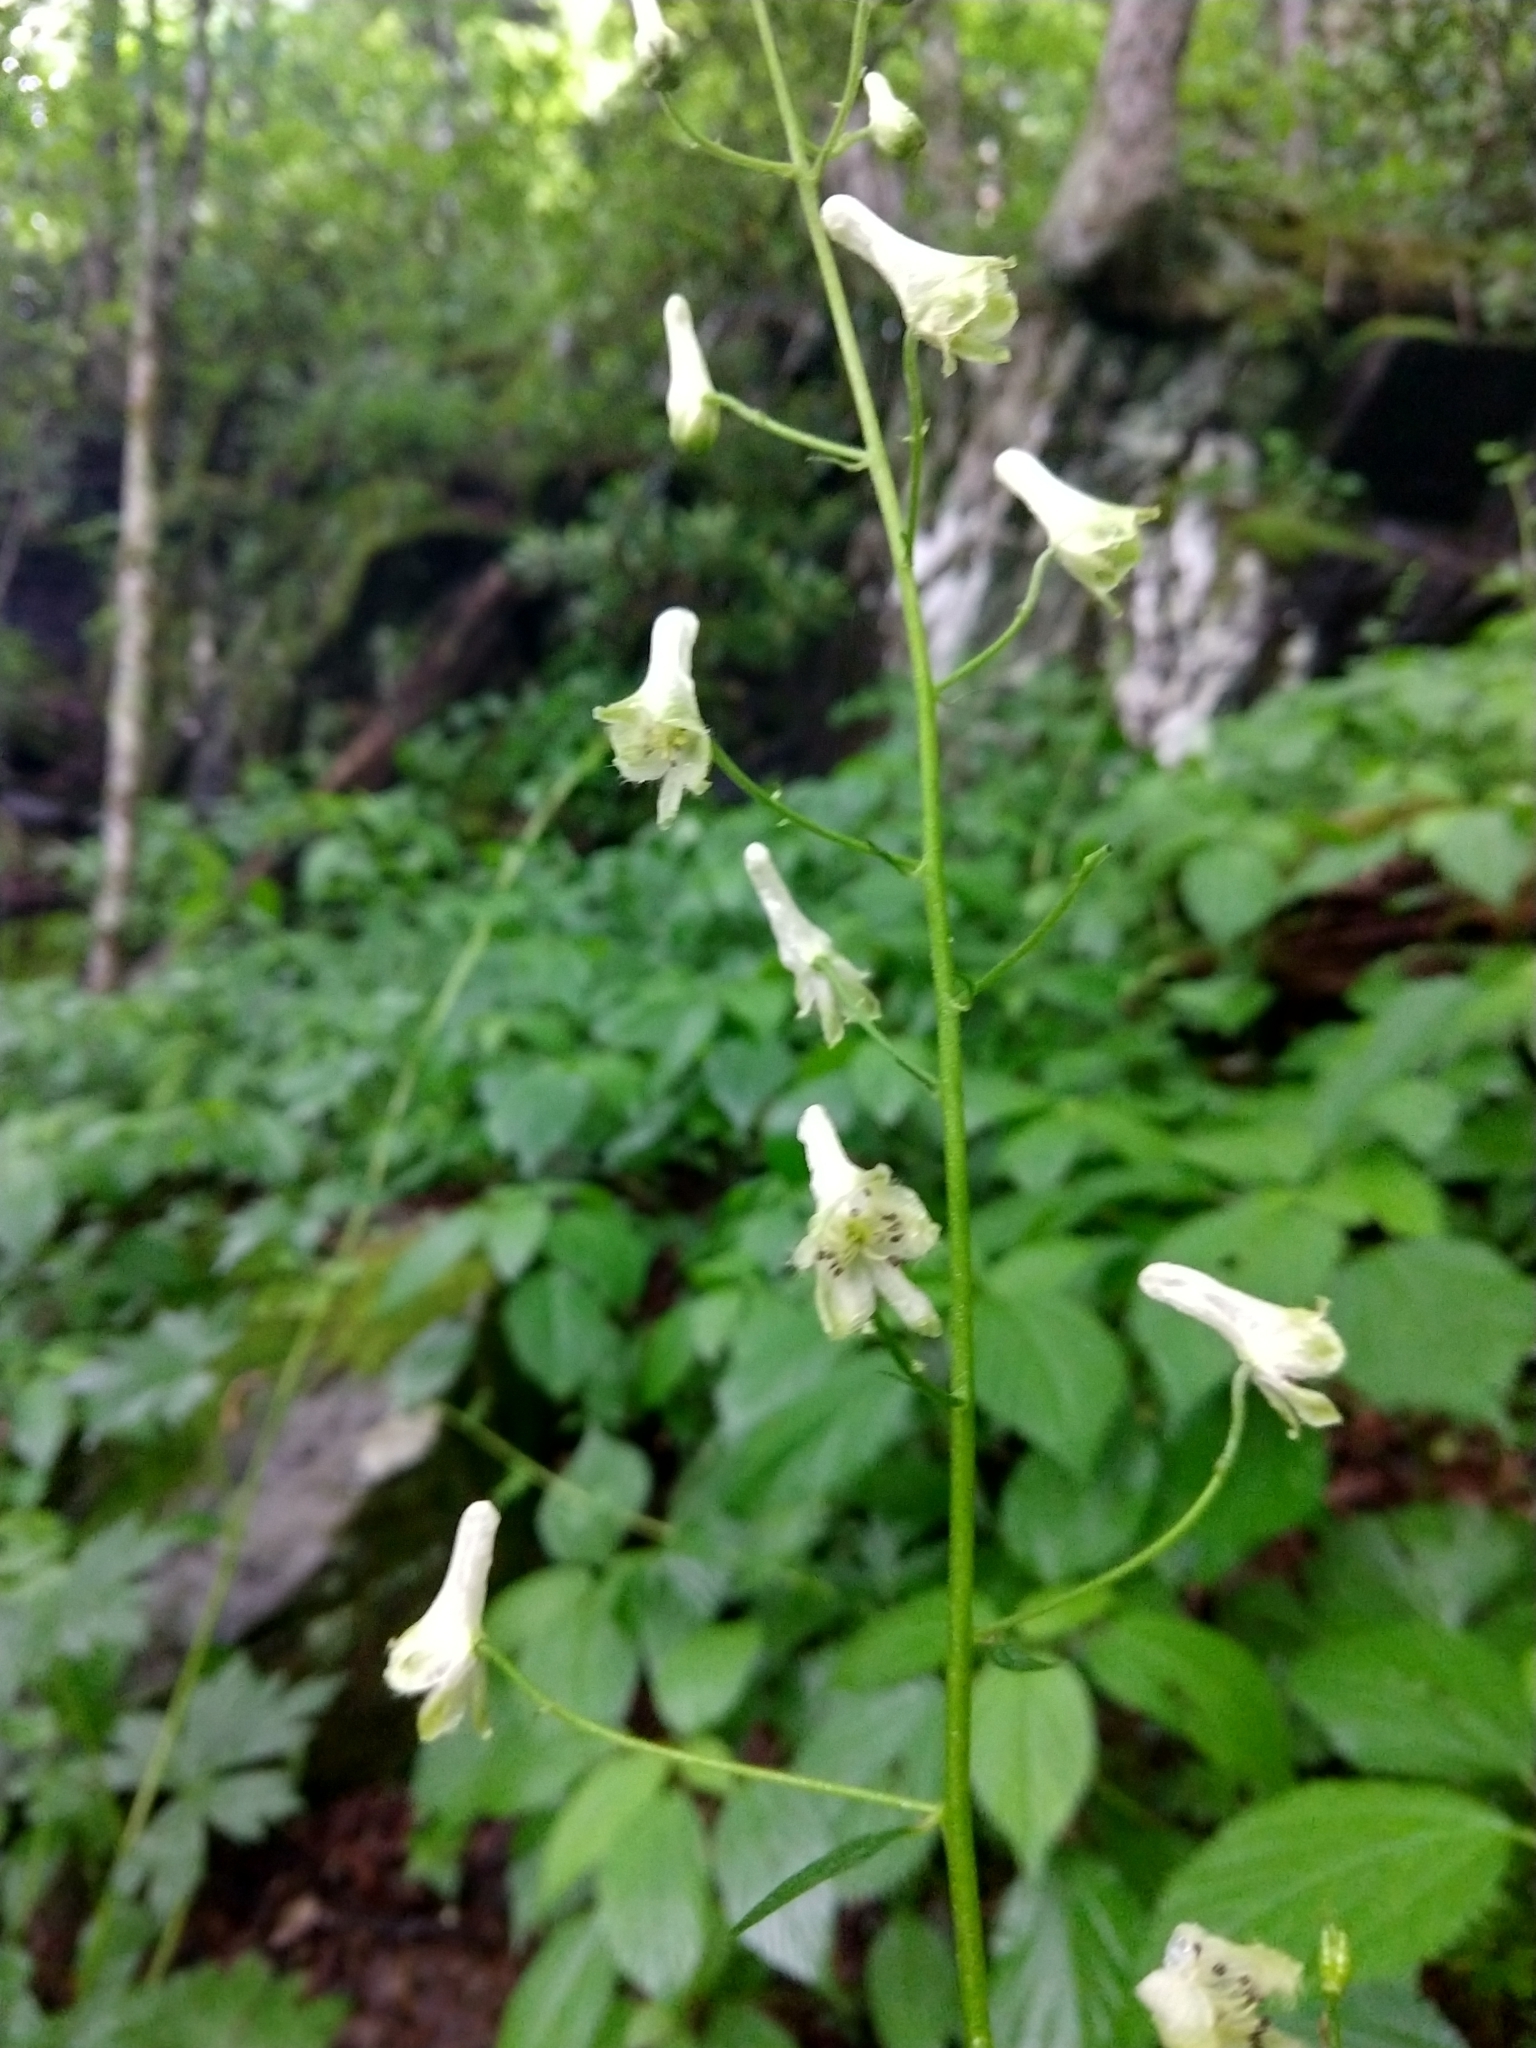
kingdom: Plantae
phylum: Tracheophyta
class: Magnoliopsida
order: Ranunculales
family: Ranunculaceae
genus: Aconitum
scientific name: Aconitum reclinatum
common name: Trailing wolfsbane
